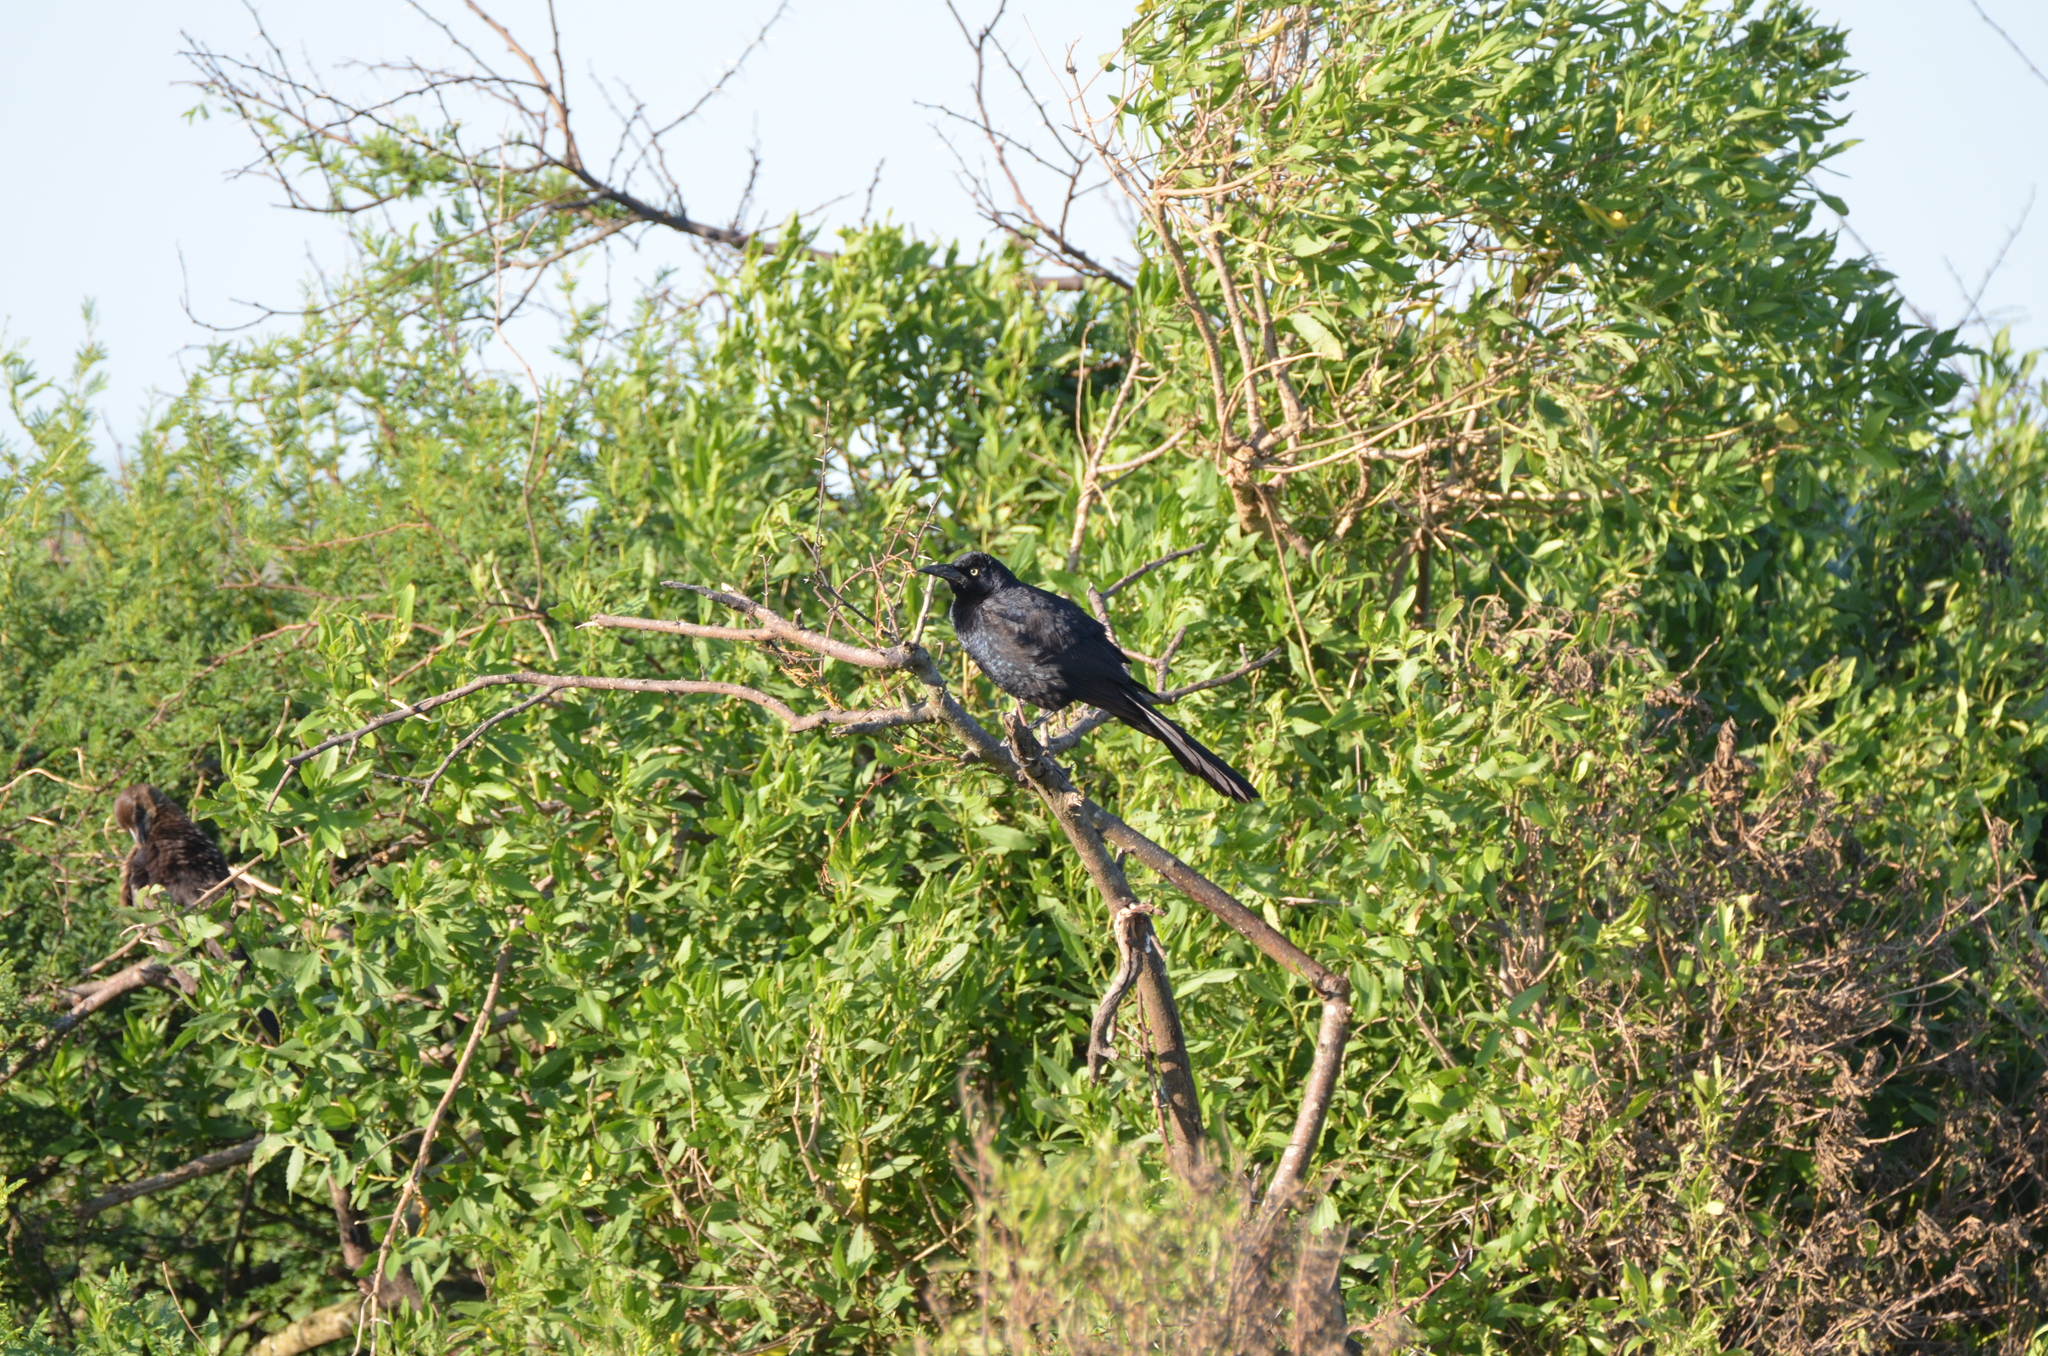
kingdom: Animalia
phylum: Chordata
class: Aves
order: Passeriformes
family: Icteridae
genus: Quiscalus
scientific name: Quiscalus mexicanus
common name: Great-tailed grackle
